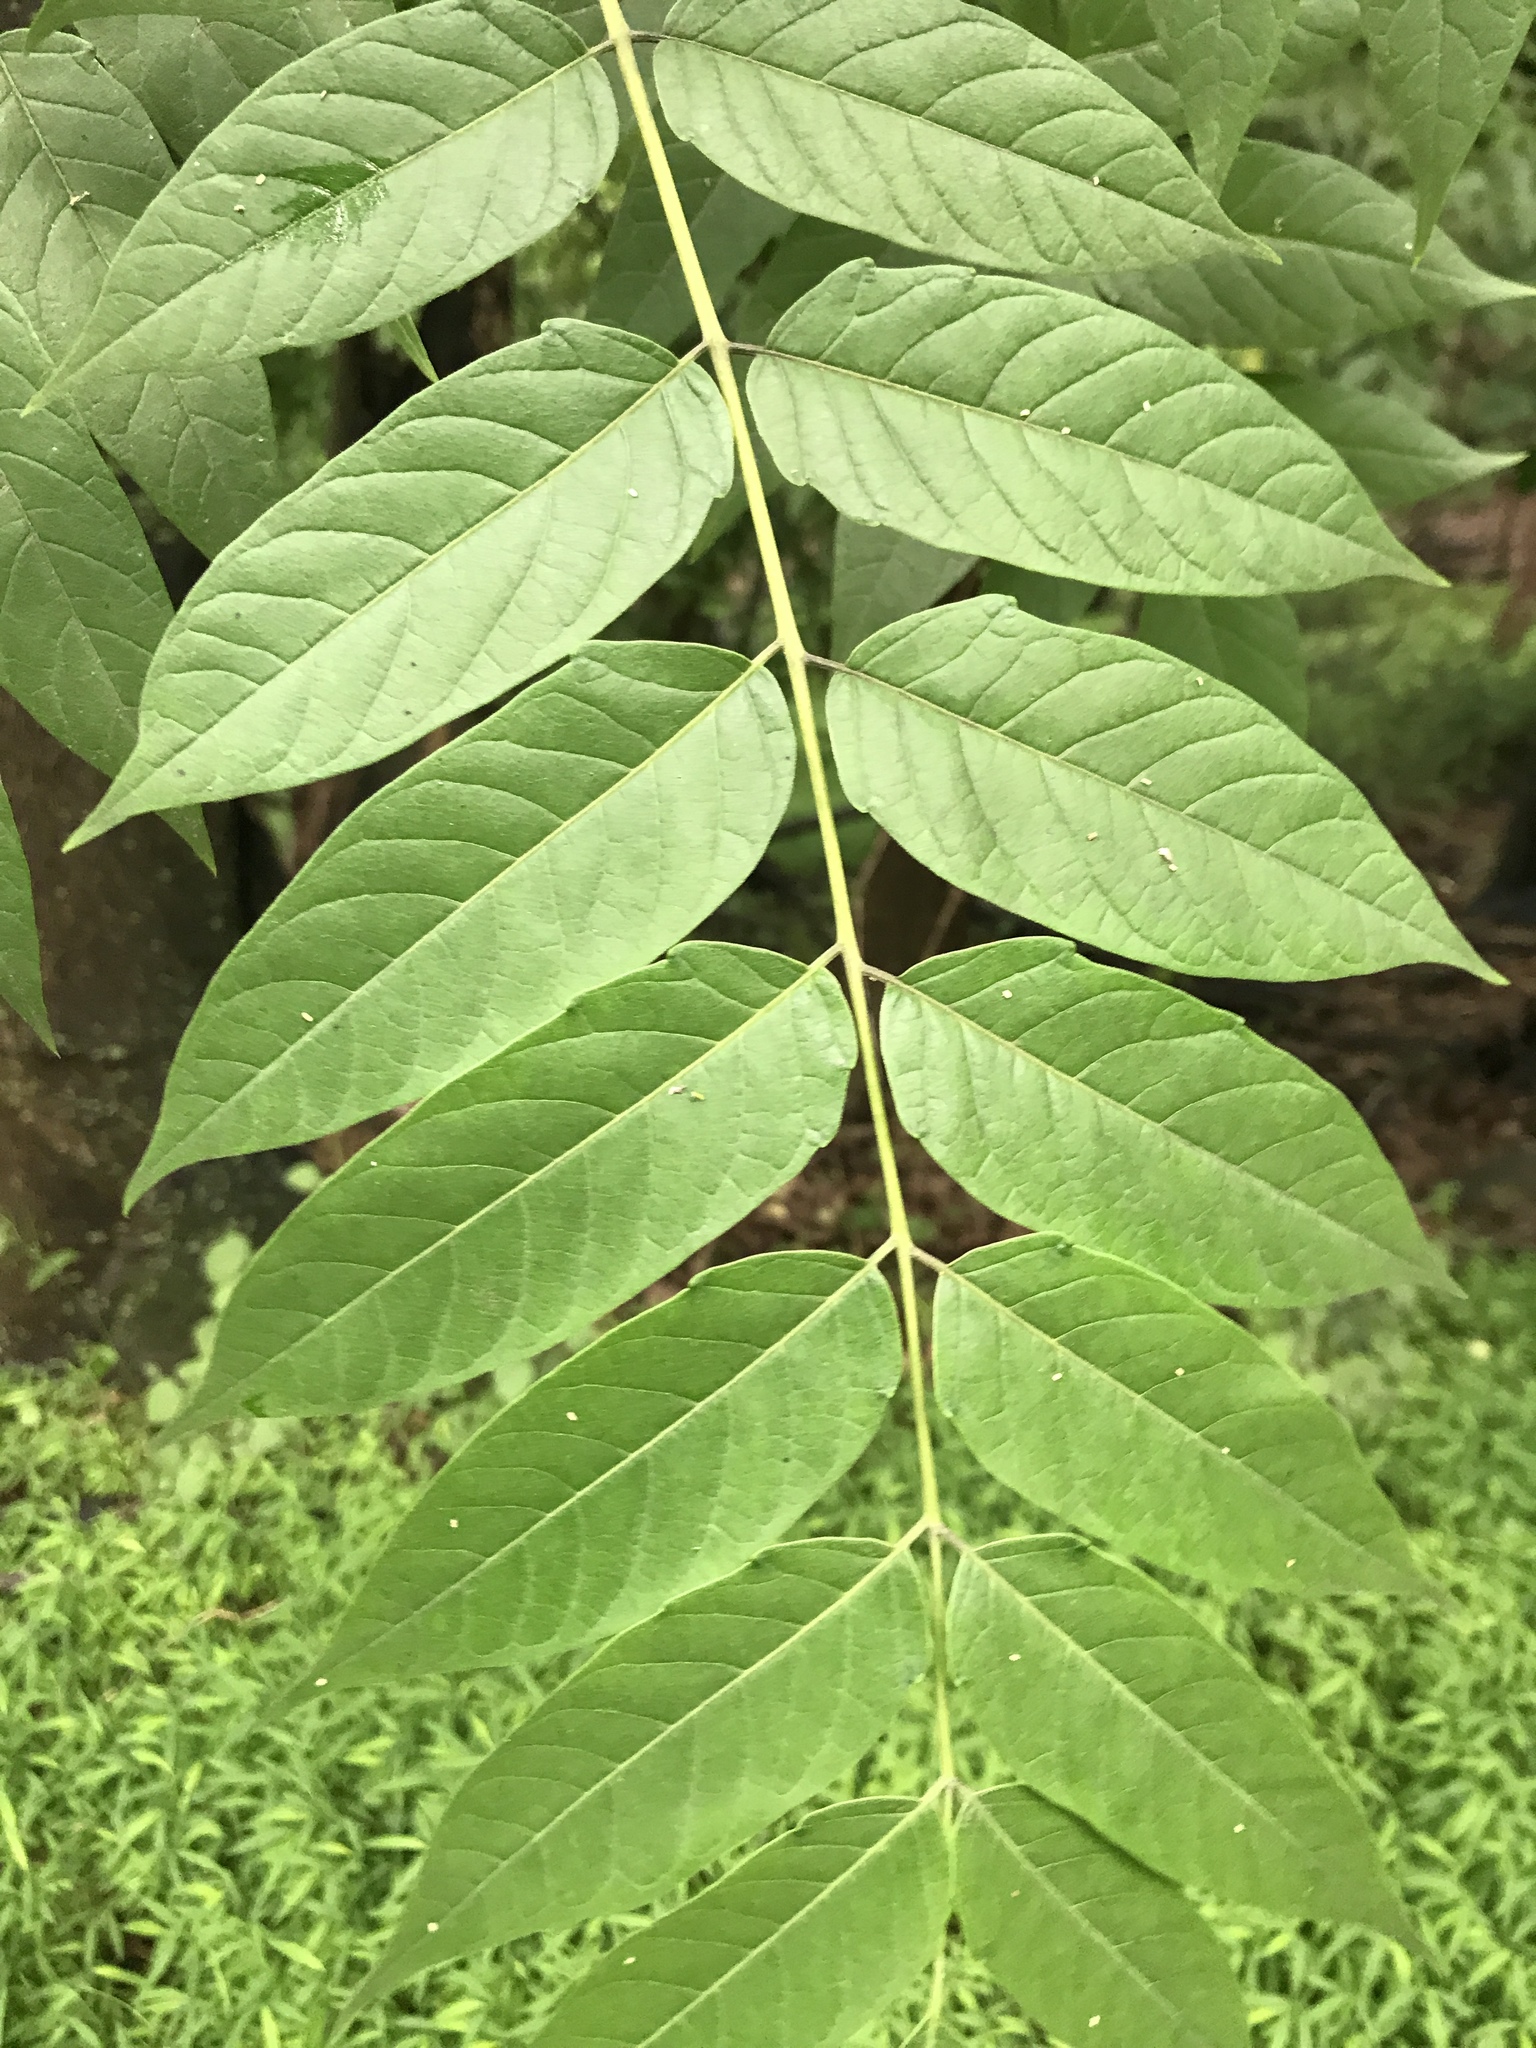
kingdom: Plantae
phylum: Tracheophyta
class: Magnoliopsida
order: Sapindales
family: Simaroubaceae
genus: Ailanthus
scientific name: Ailanthus altissima
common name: Tree-of-heaven
